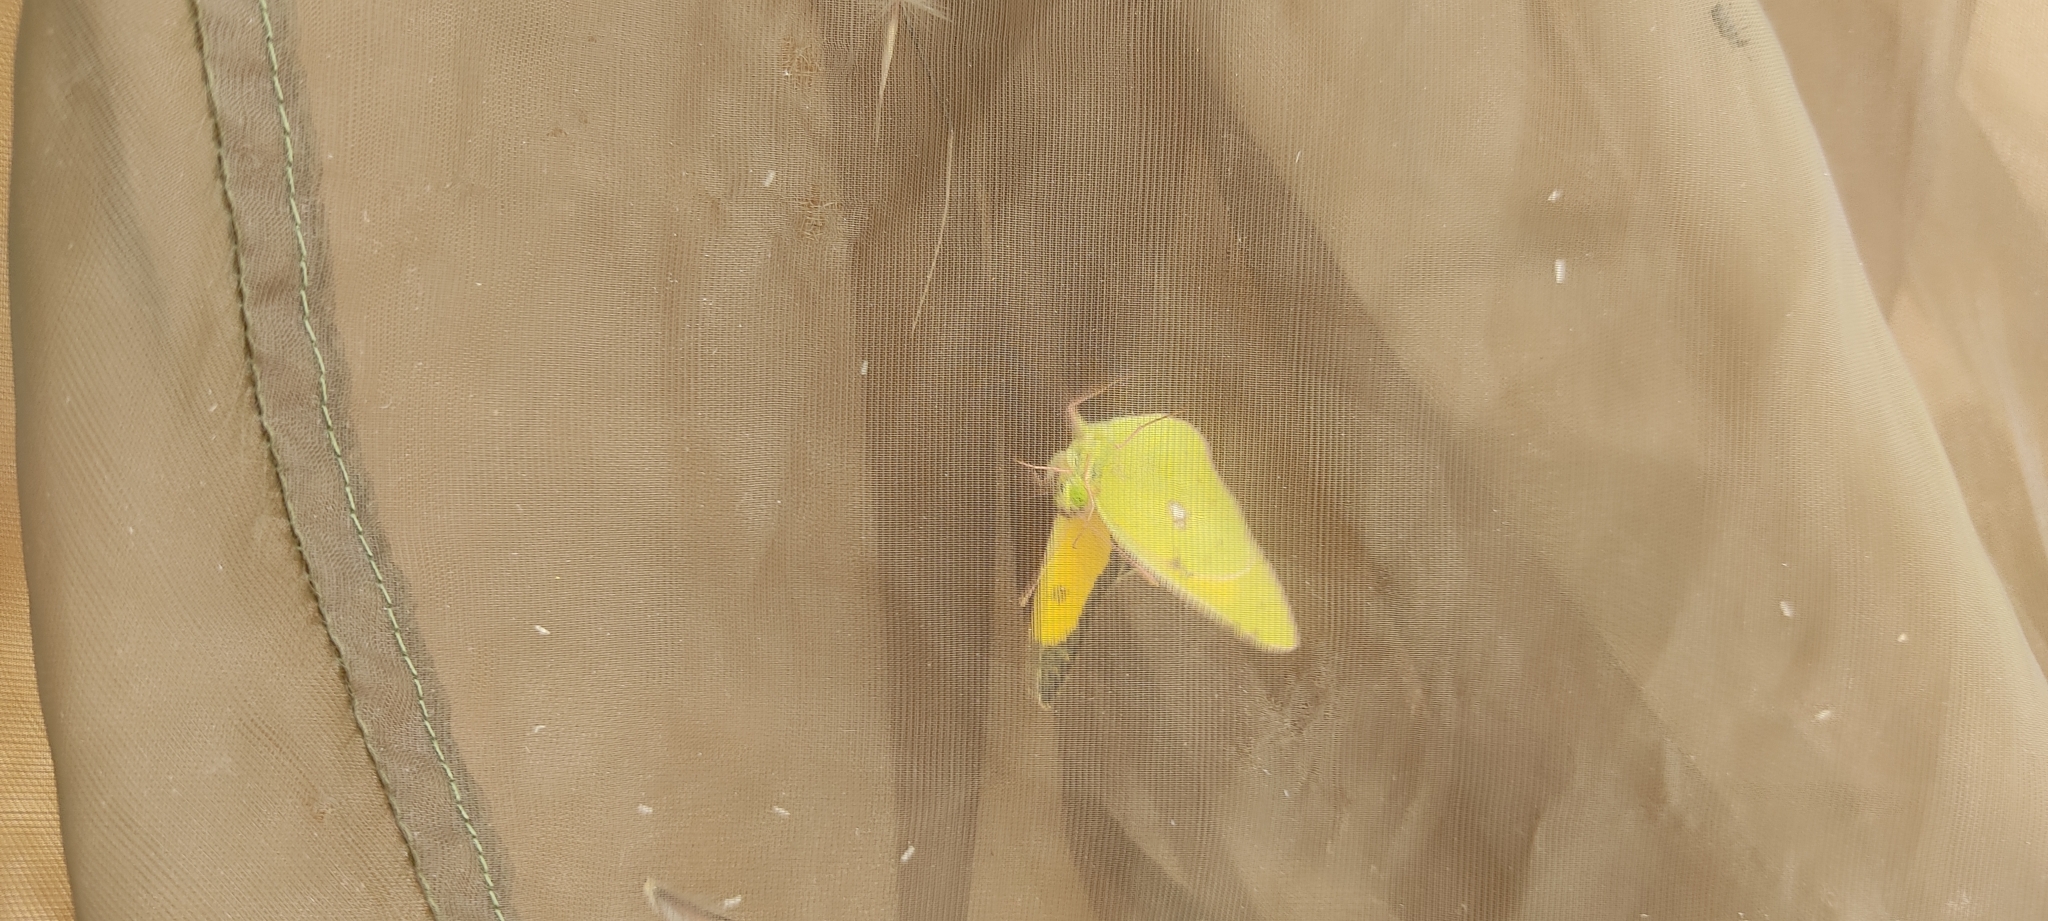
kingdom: Animalia
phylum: Arthropoda
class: Insecta
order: Lepidoptera
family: Pieridae
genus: Colias
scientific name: Colias croceus
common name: Clouded yellow
